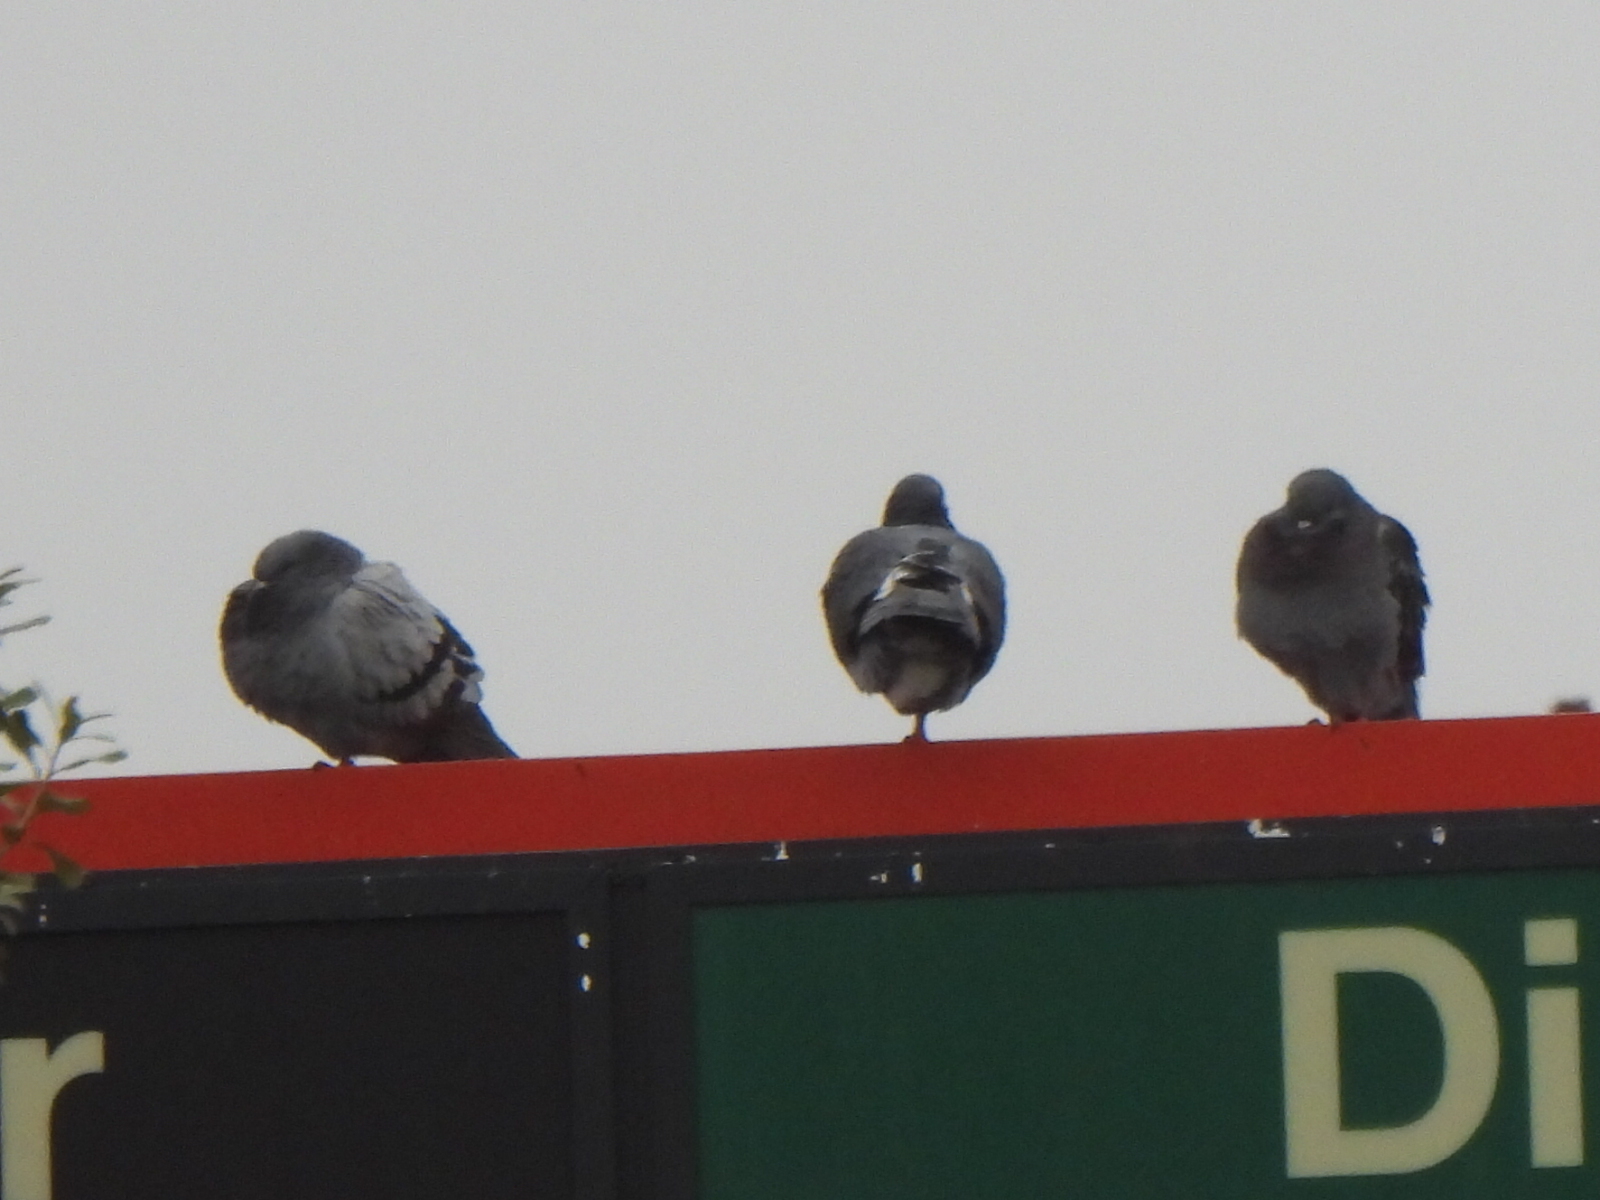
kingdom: Animalia
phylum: Chordata
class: Aves
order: Columbiformes
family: Columbidae
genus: Columba
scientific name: Columba livia
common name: Rock pigeon
